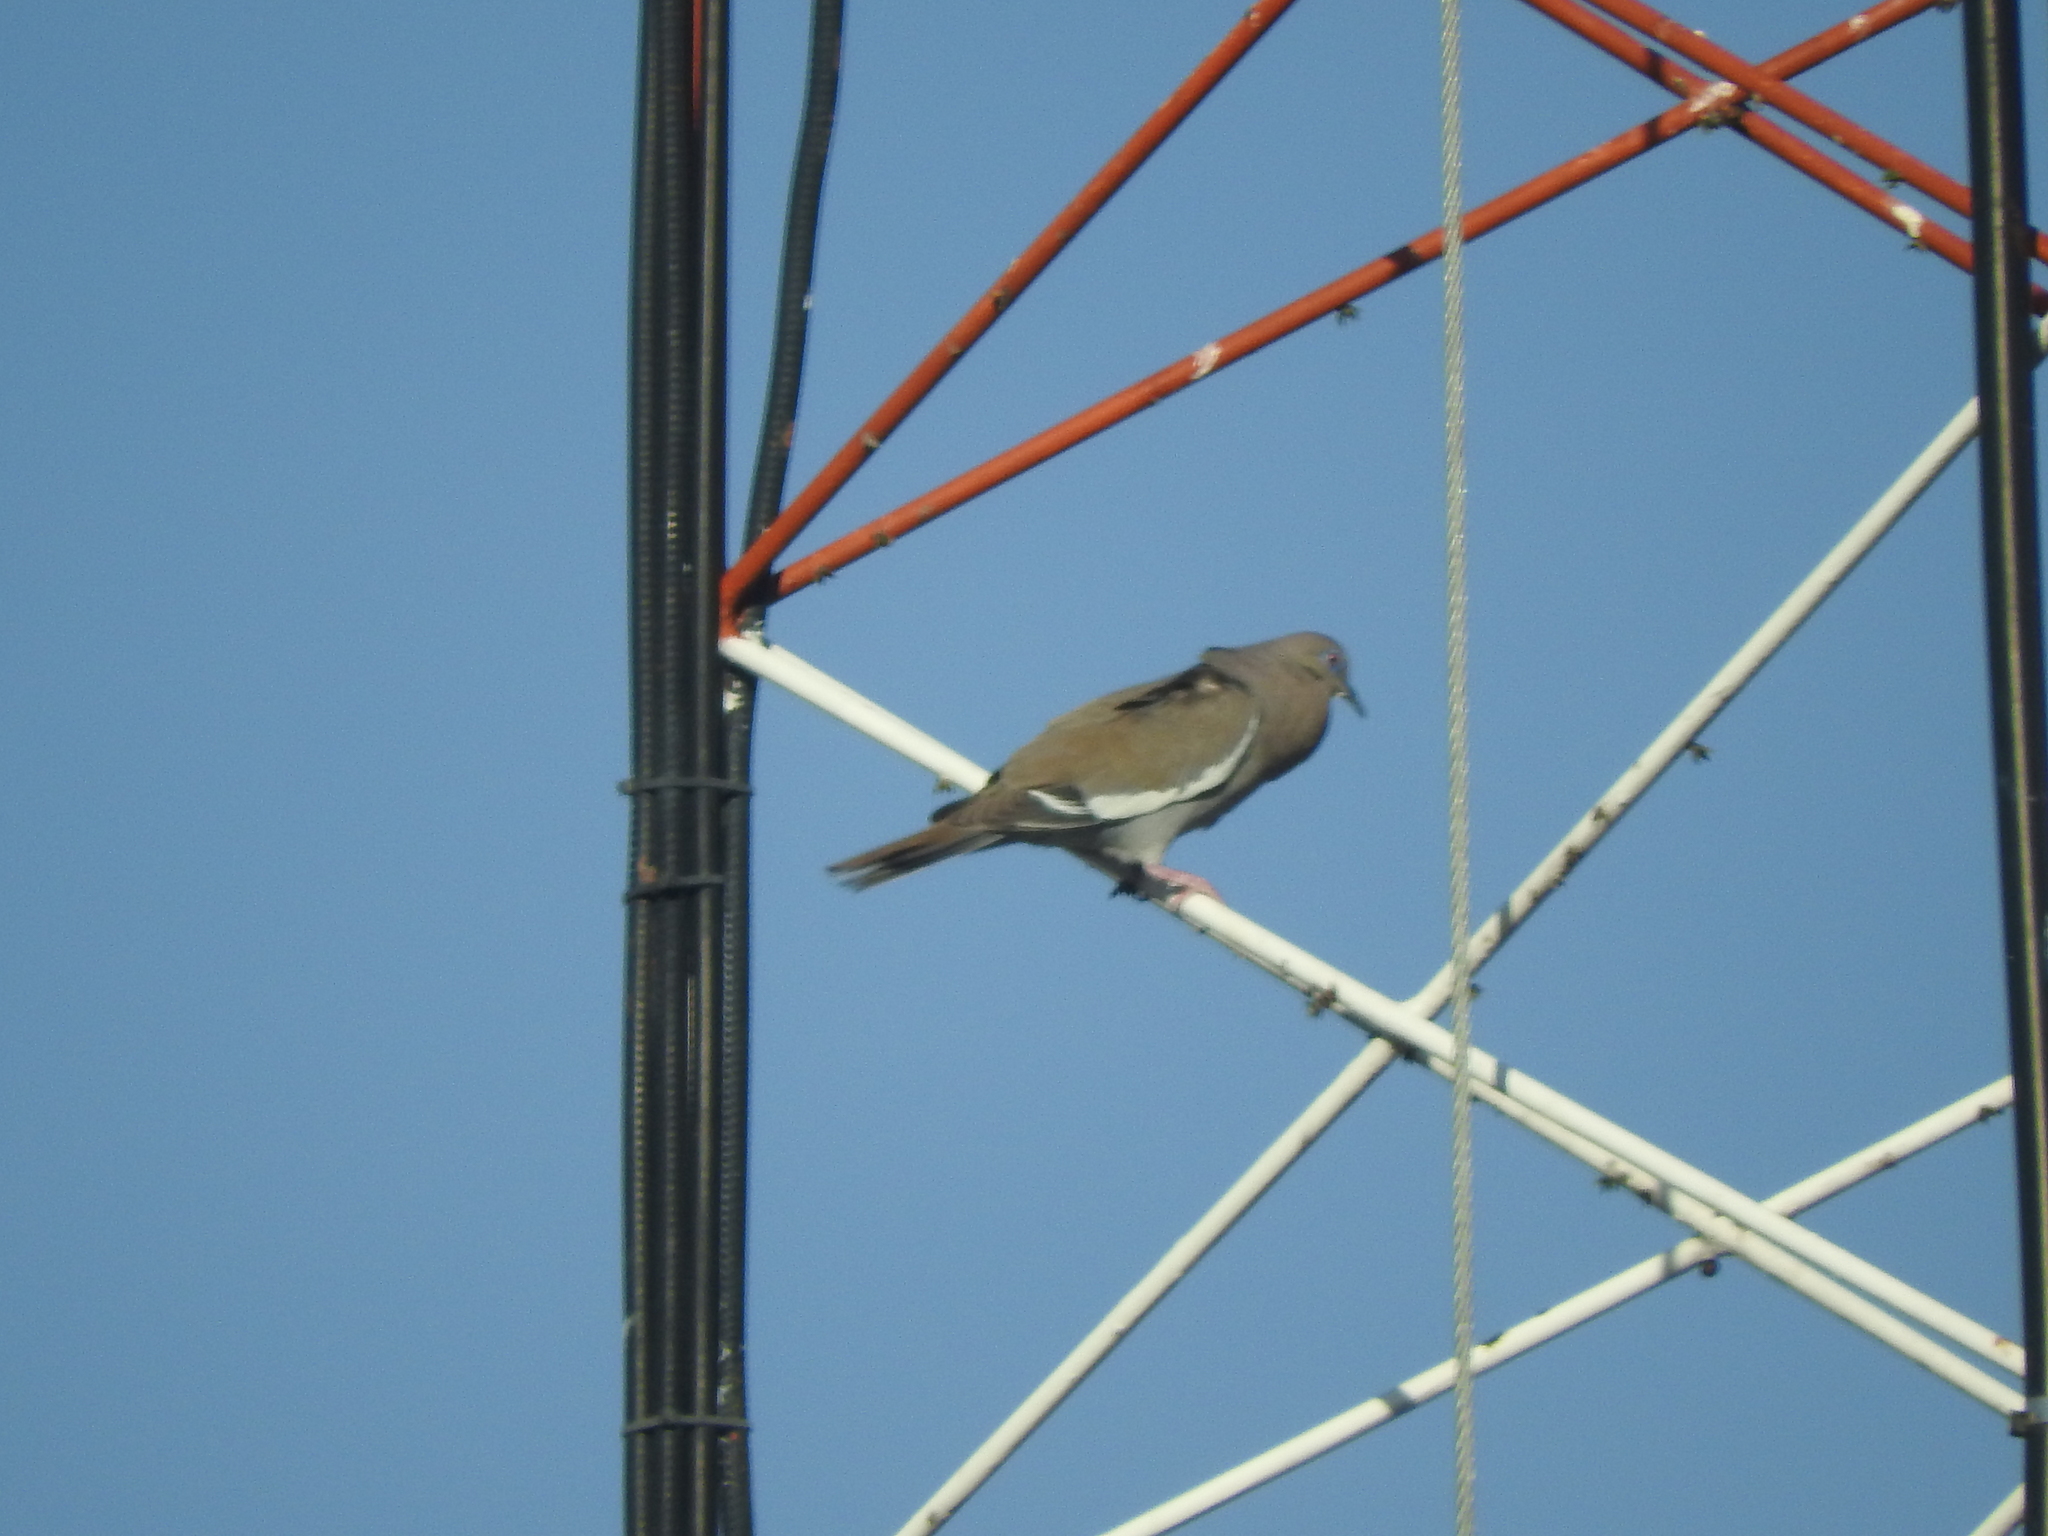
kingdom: Animalia
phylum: Chordata
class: Aves
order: Columbiformes
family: Columbidae
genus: Zenaida
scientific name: Zenaida asiatica
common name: White-winged dove
